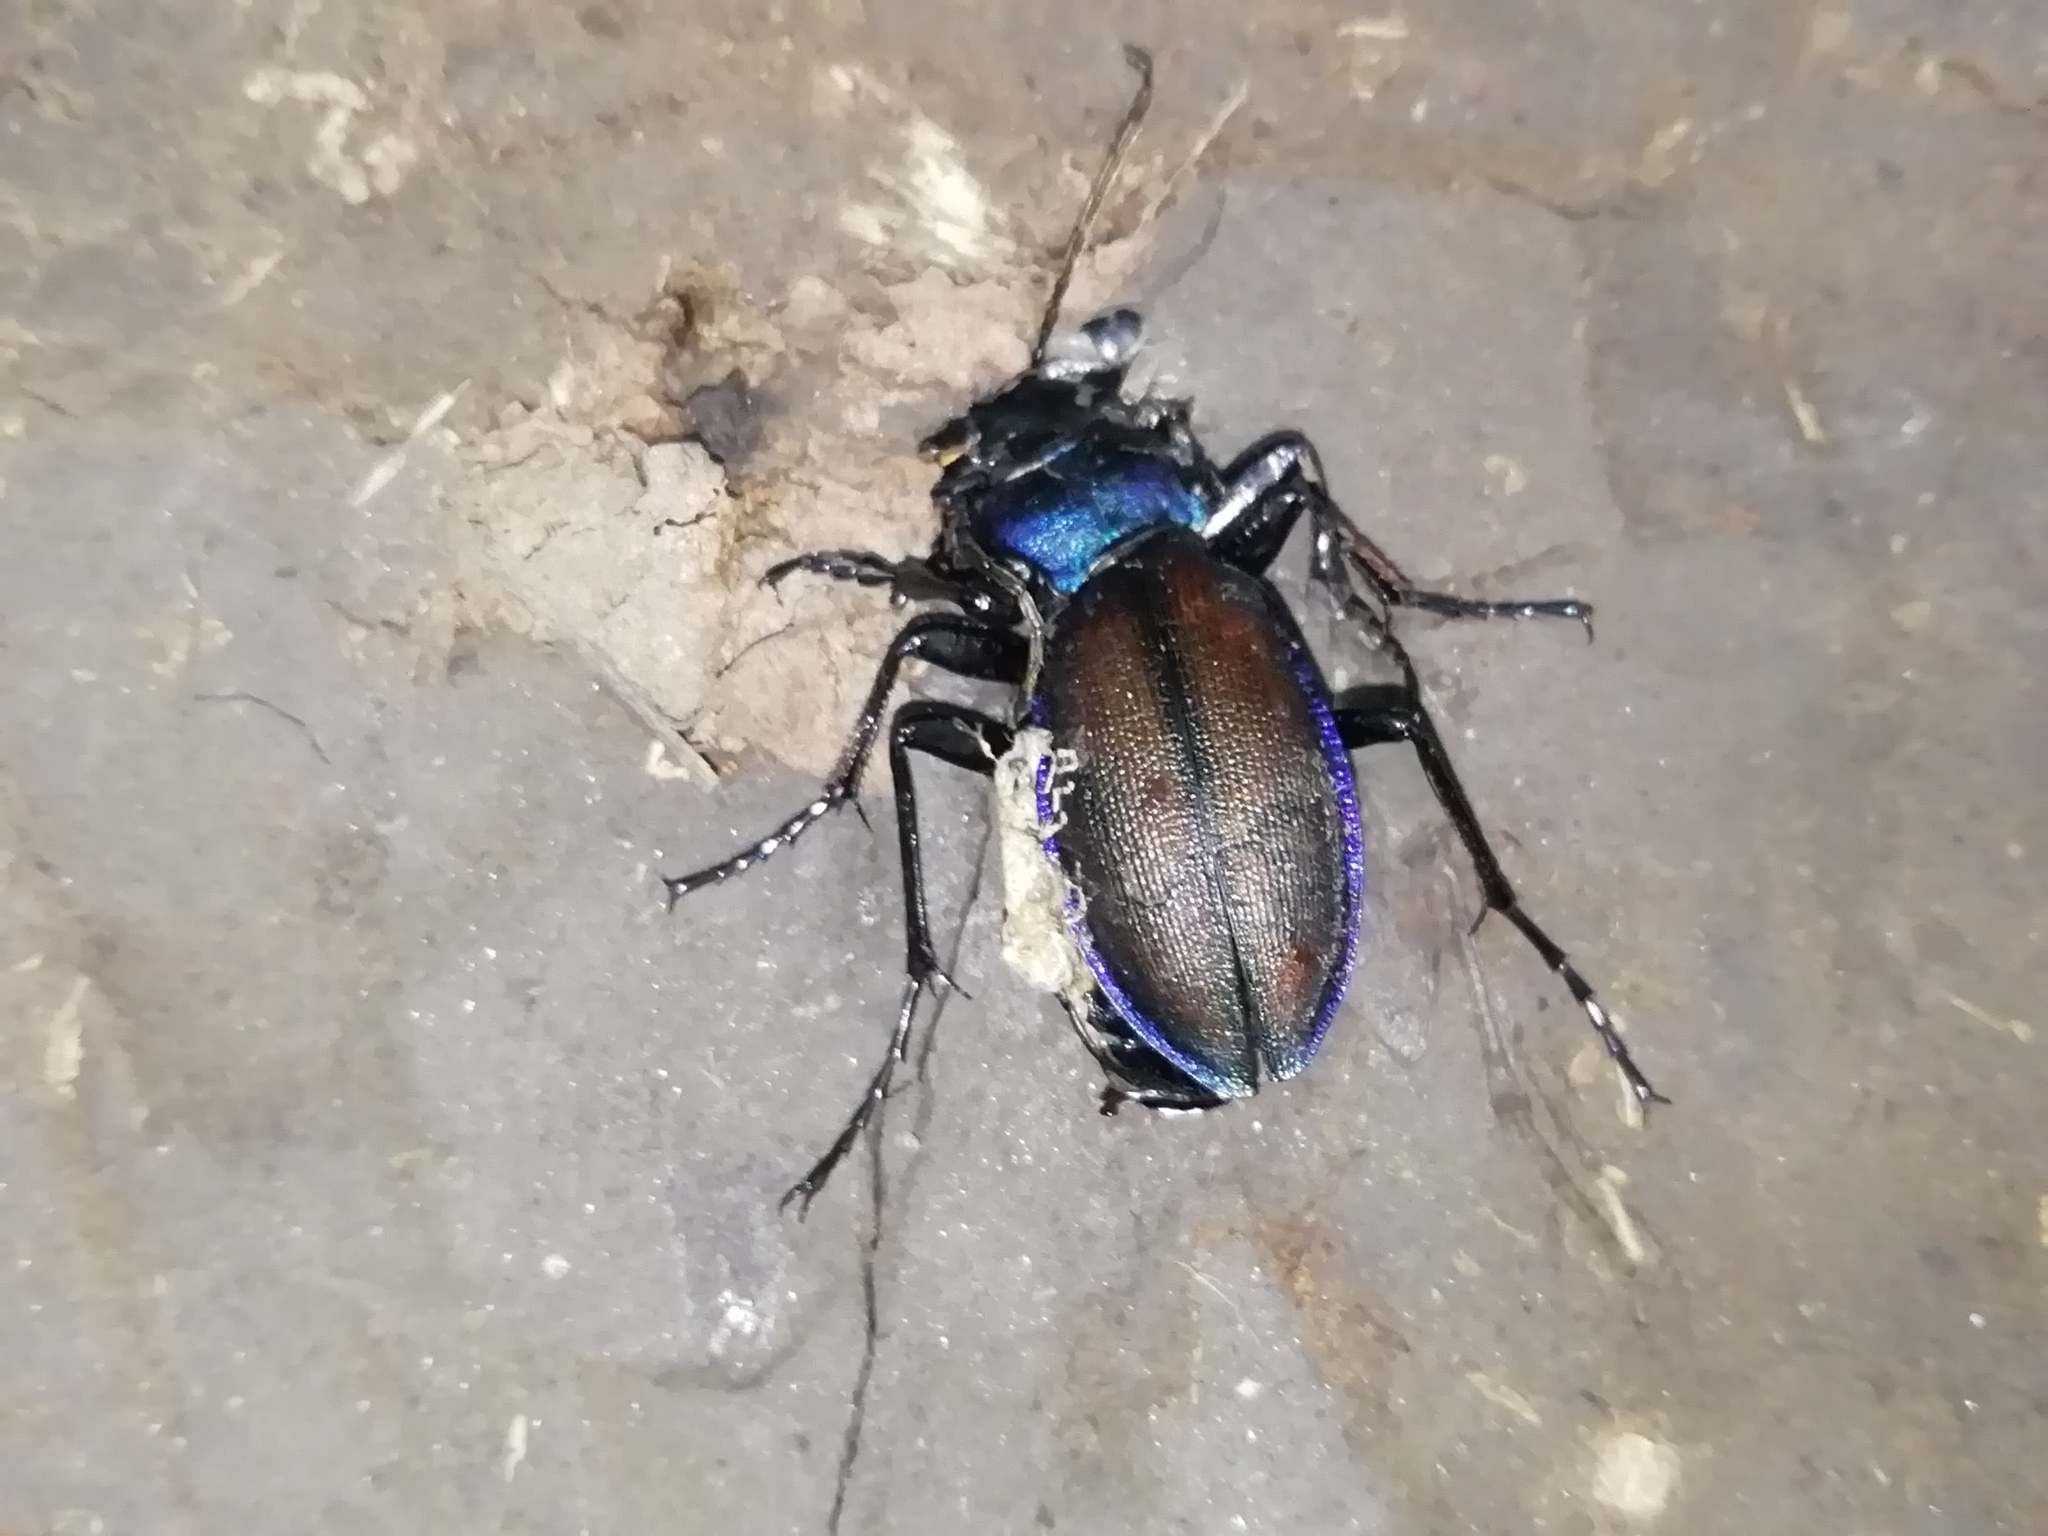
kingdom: Animalia
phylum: Arthropoda
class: Insecta
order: Coleoptera
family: Carabidae
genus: Carabus
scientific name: Carabus schoenherri
